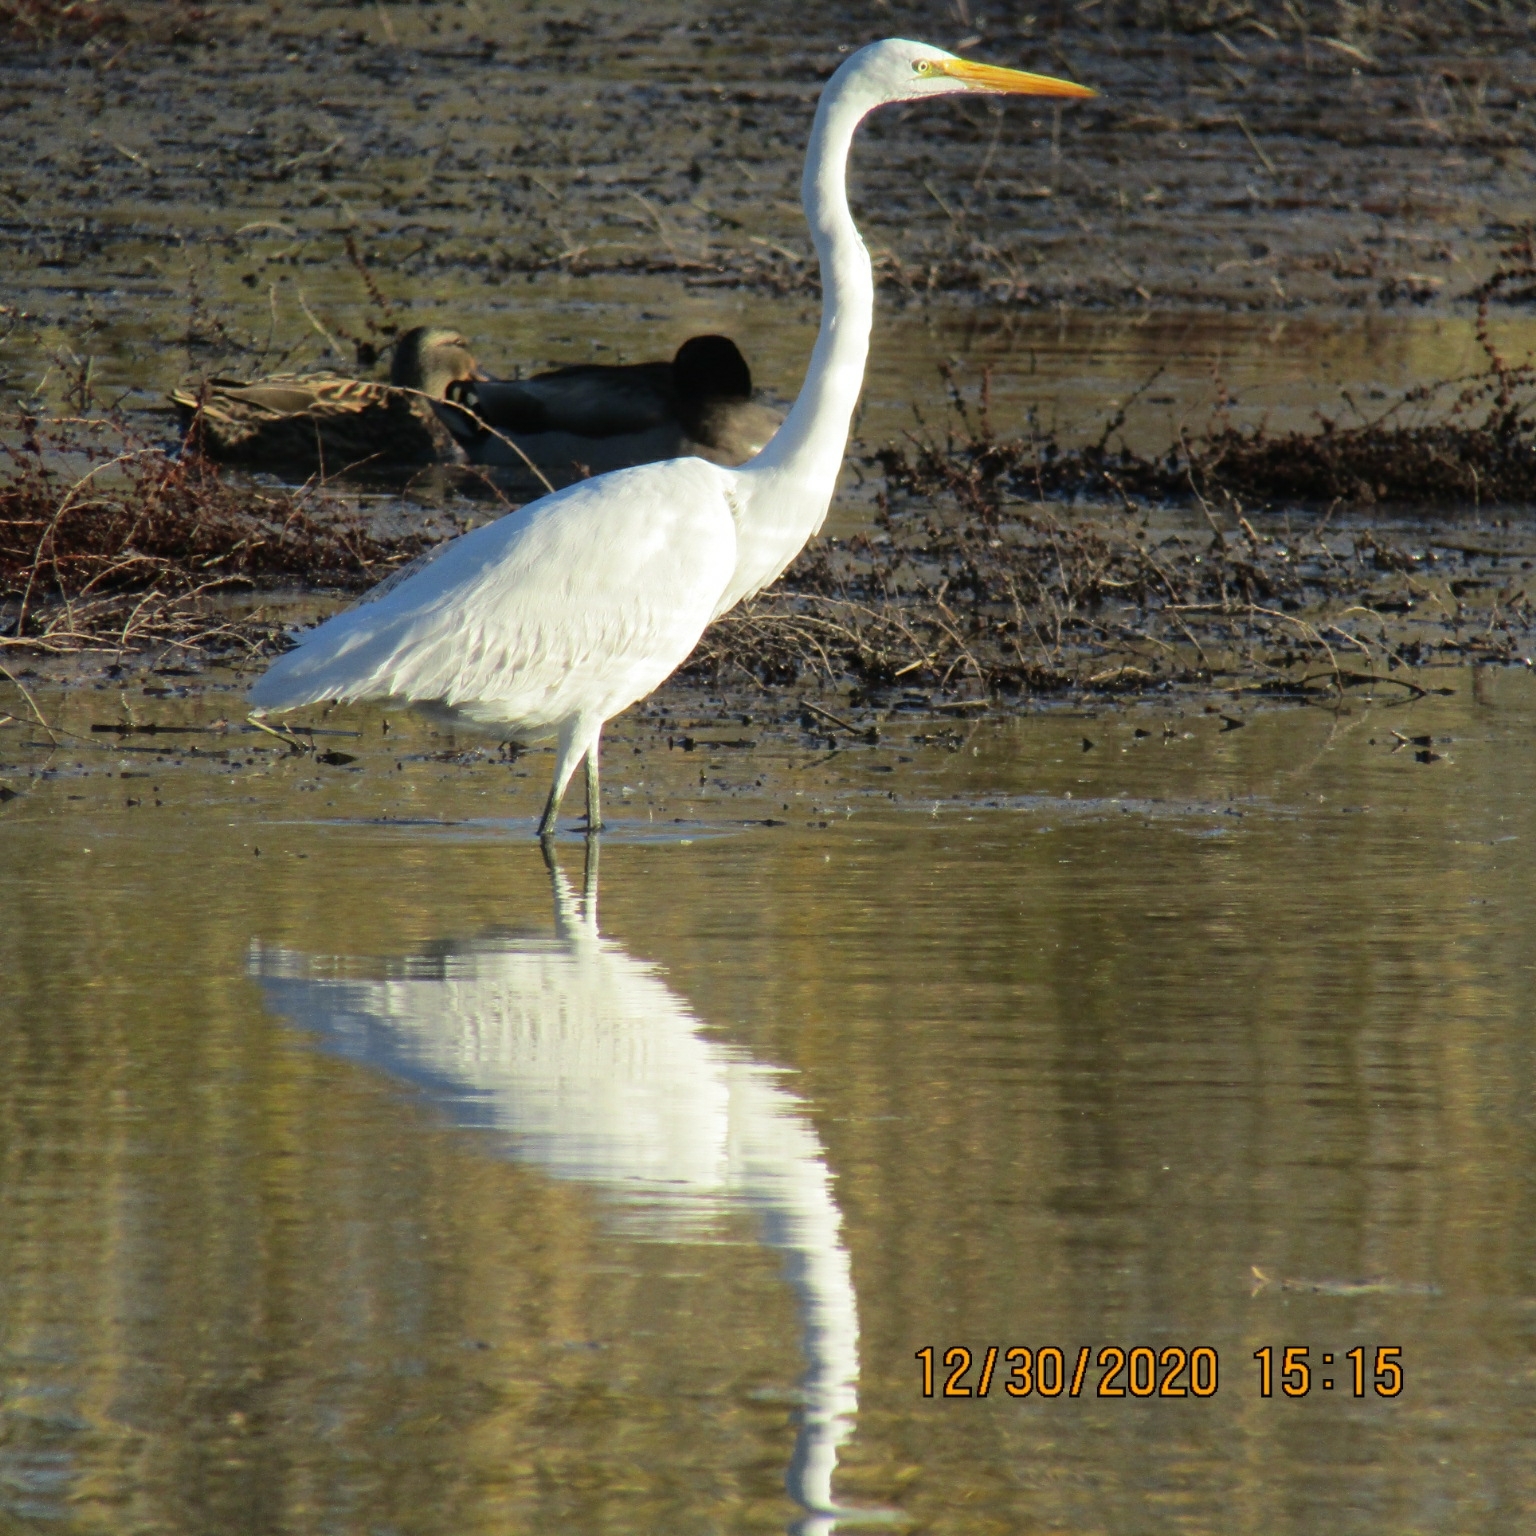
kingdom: Animalia
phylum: Chordata
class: Aves
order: Pelecaniformes
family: Ardeidae
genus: Ardea
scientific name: Ardea alba
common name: Great egret
